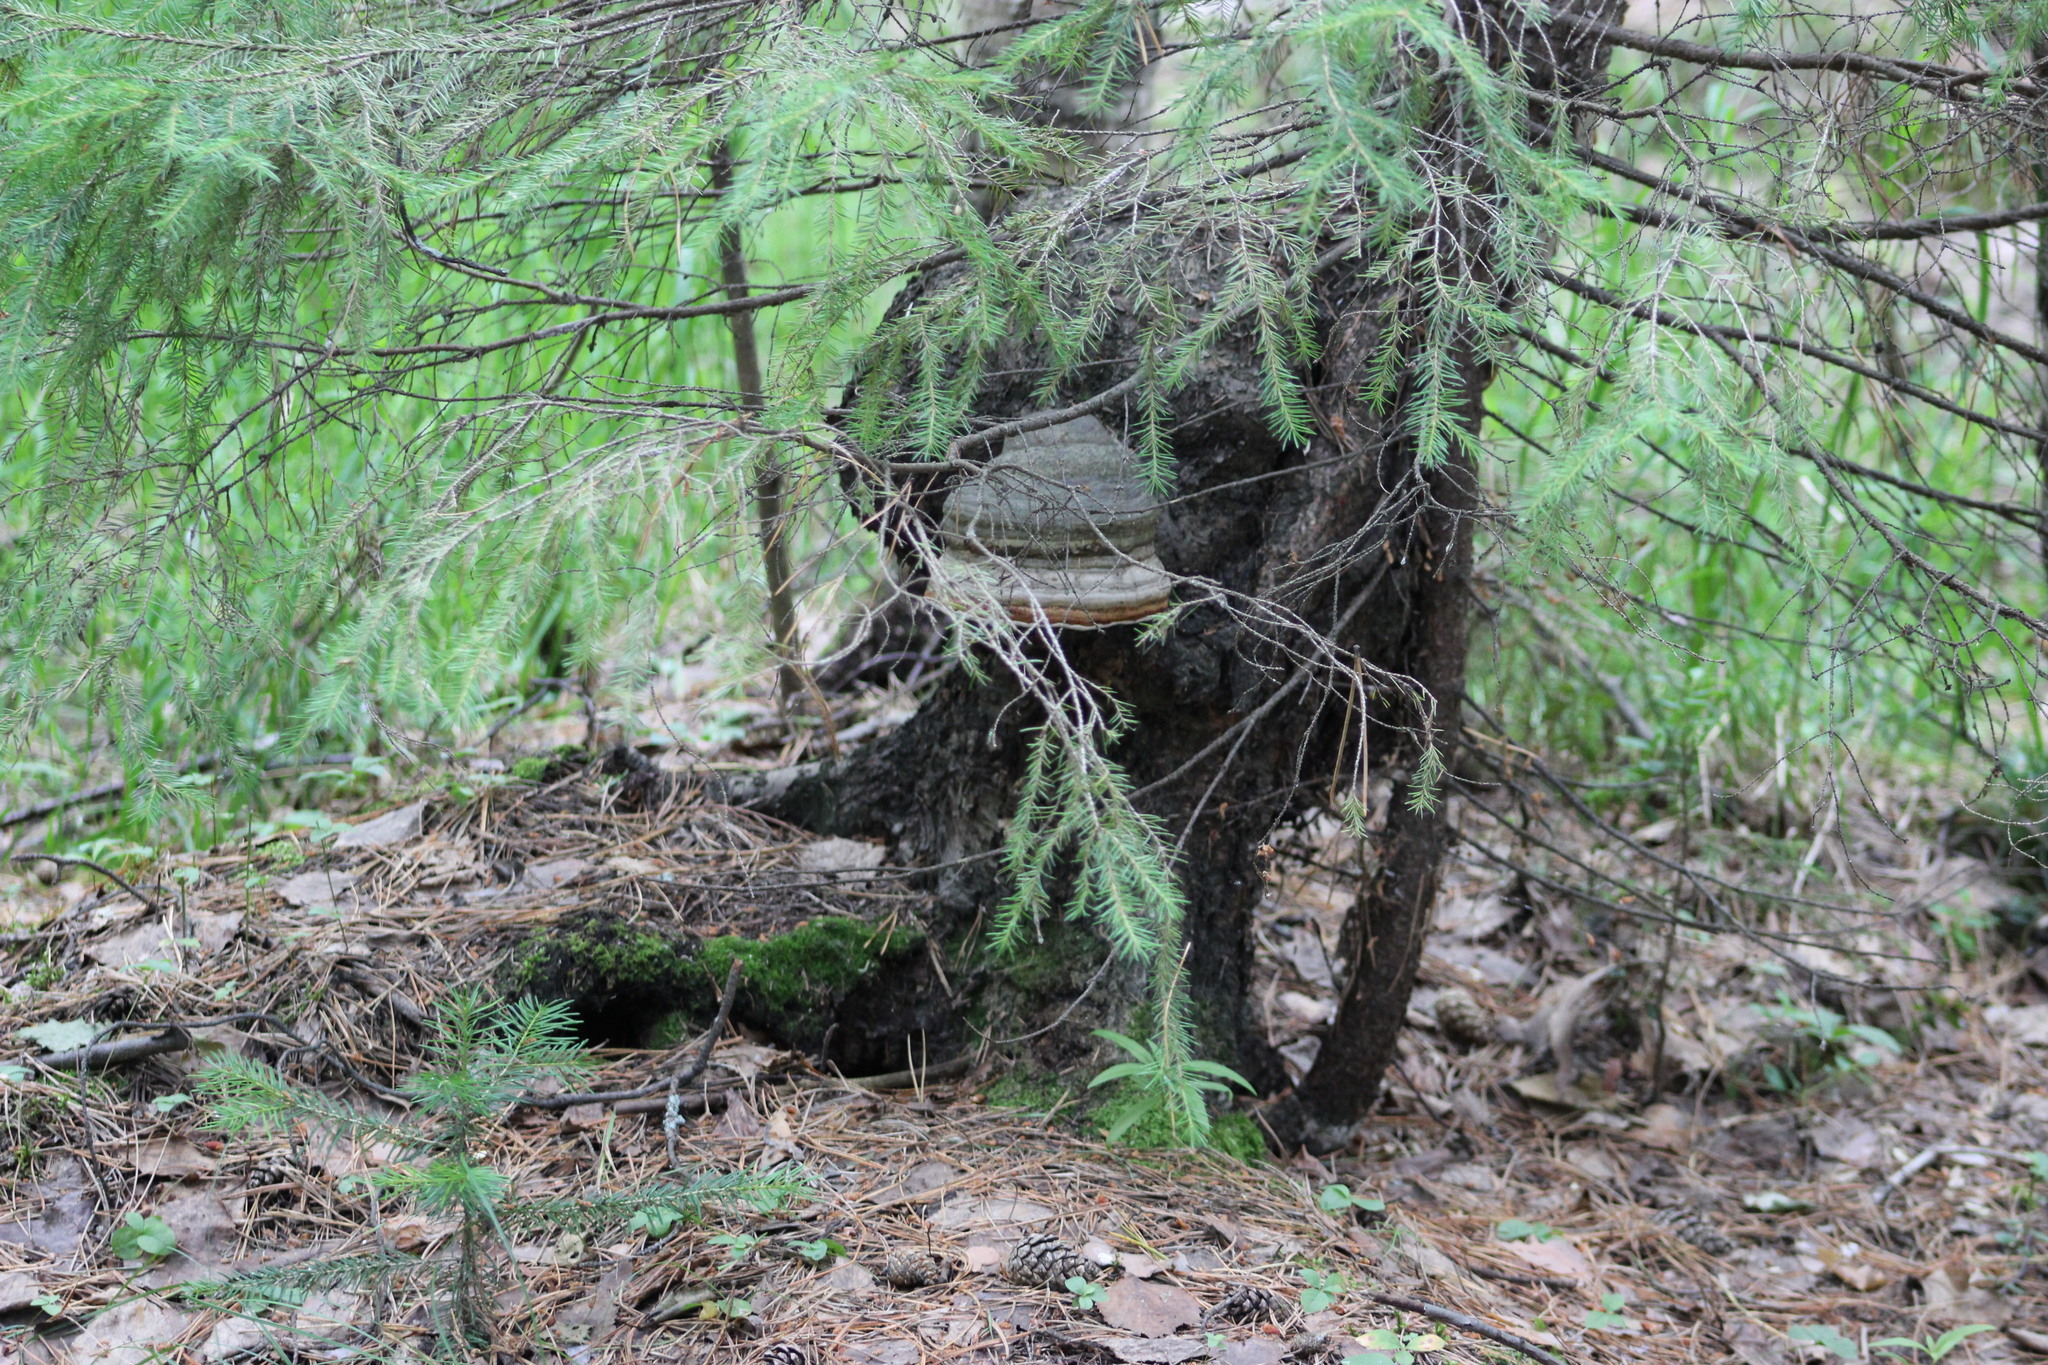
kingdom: Fungi
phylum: Basidiomycota
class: Agaricomycetes
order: Polyporales
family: Polyporaceae
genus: Fomes
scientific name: Fomes fomentarius
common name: Hoof fungus
